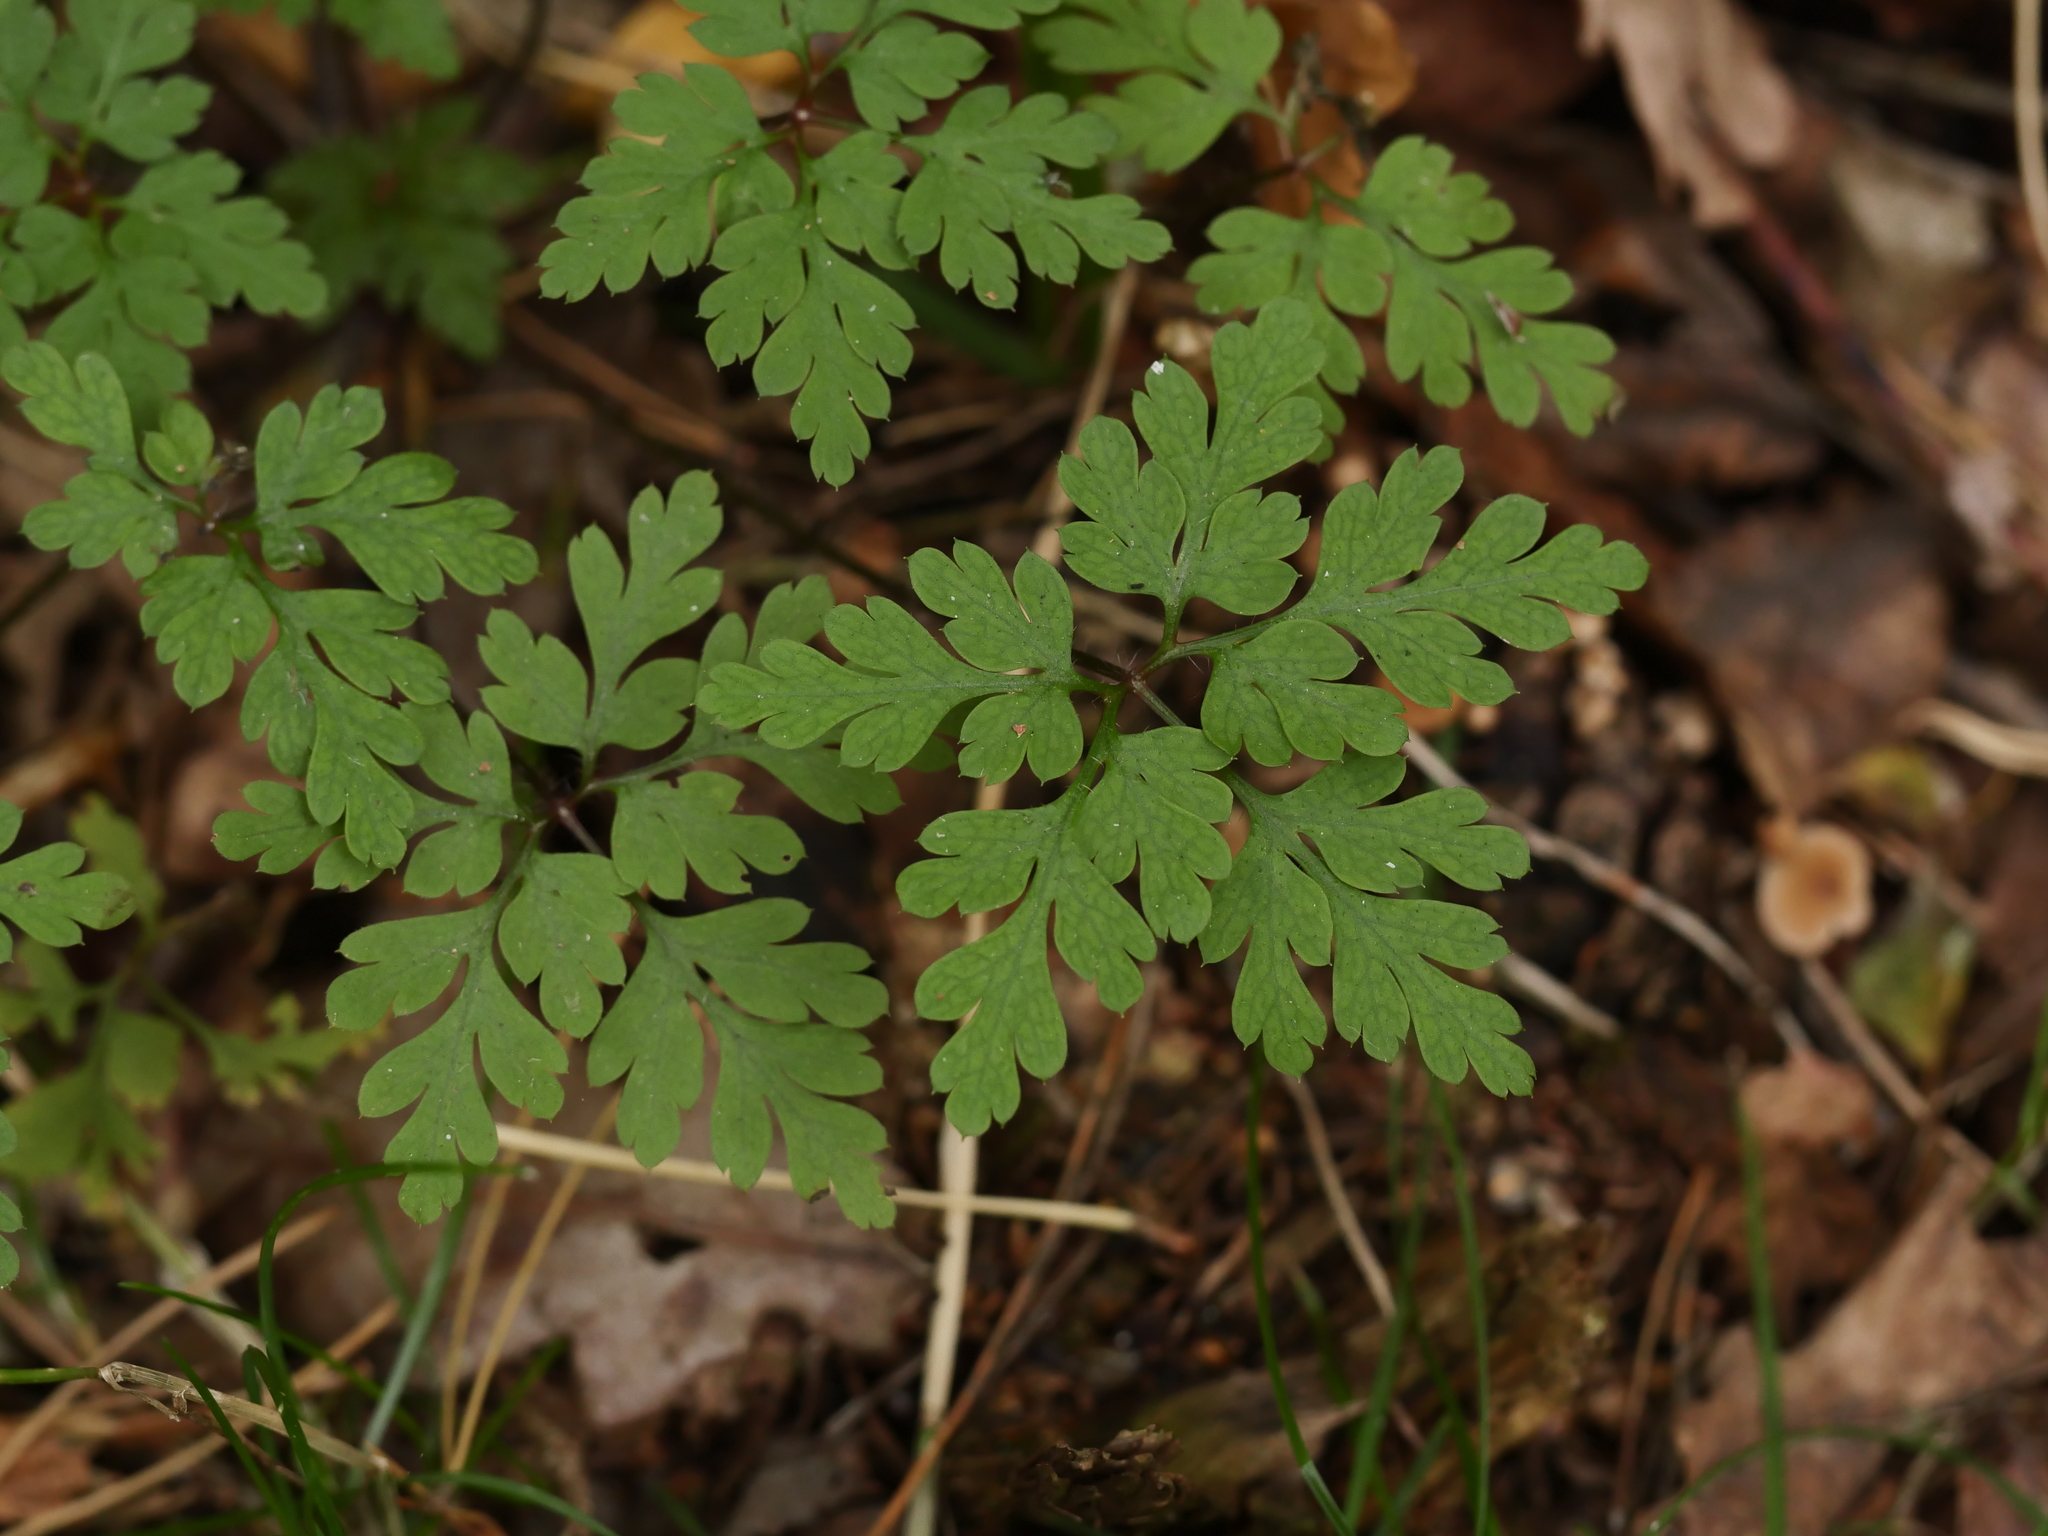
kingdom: Plantae
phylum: Tracheophyta
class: Magnoliopsida
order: Geraniales
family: Geraniaceae
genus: Geranium
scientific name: Geranium robertianum
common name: Herb-robert
